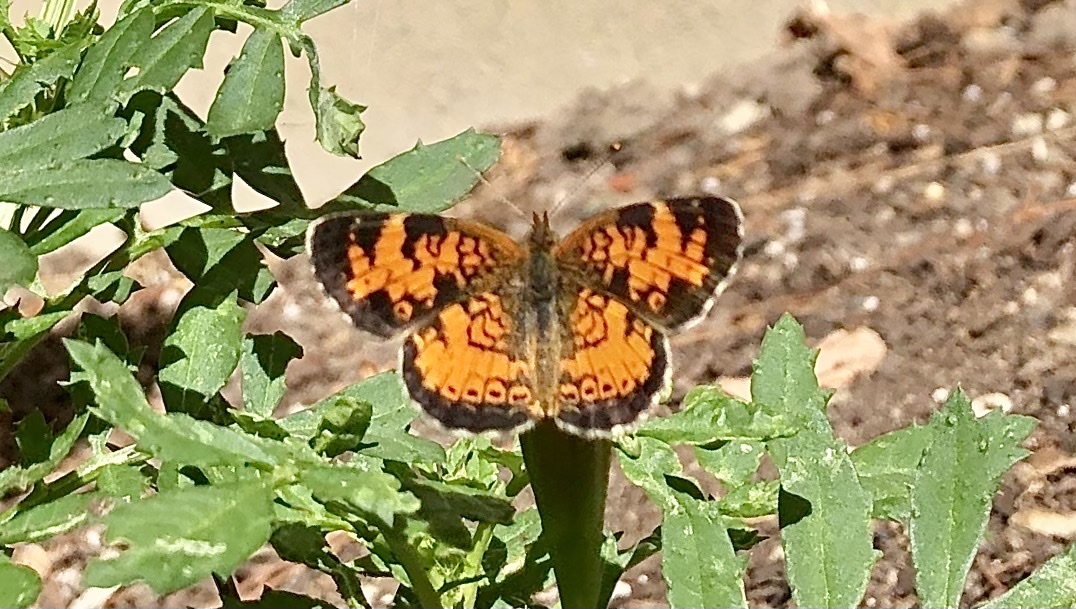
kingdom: Animalia
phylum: Arthropoda
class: Insecta
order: Lepidoptera
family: Nymphalidae
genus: Phyciodes
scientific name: Phyciodes tharos
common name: Pearl crescent
